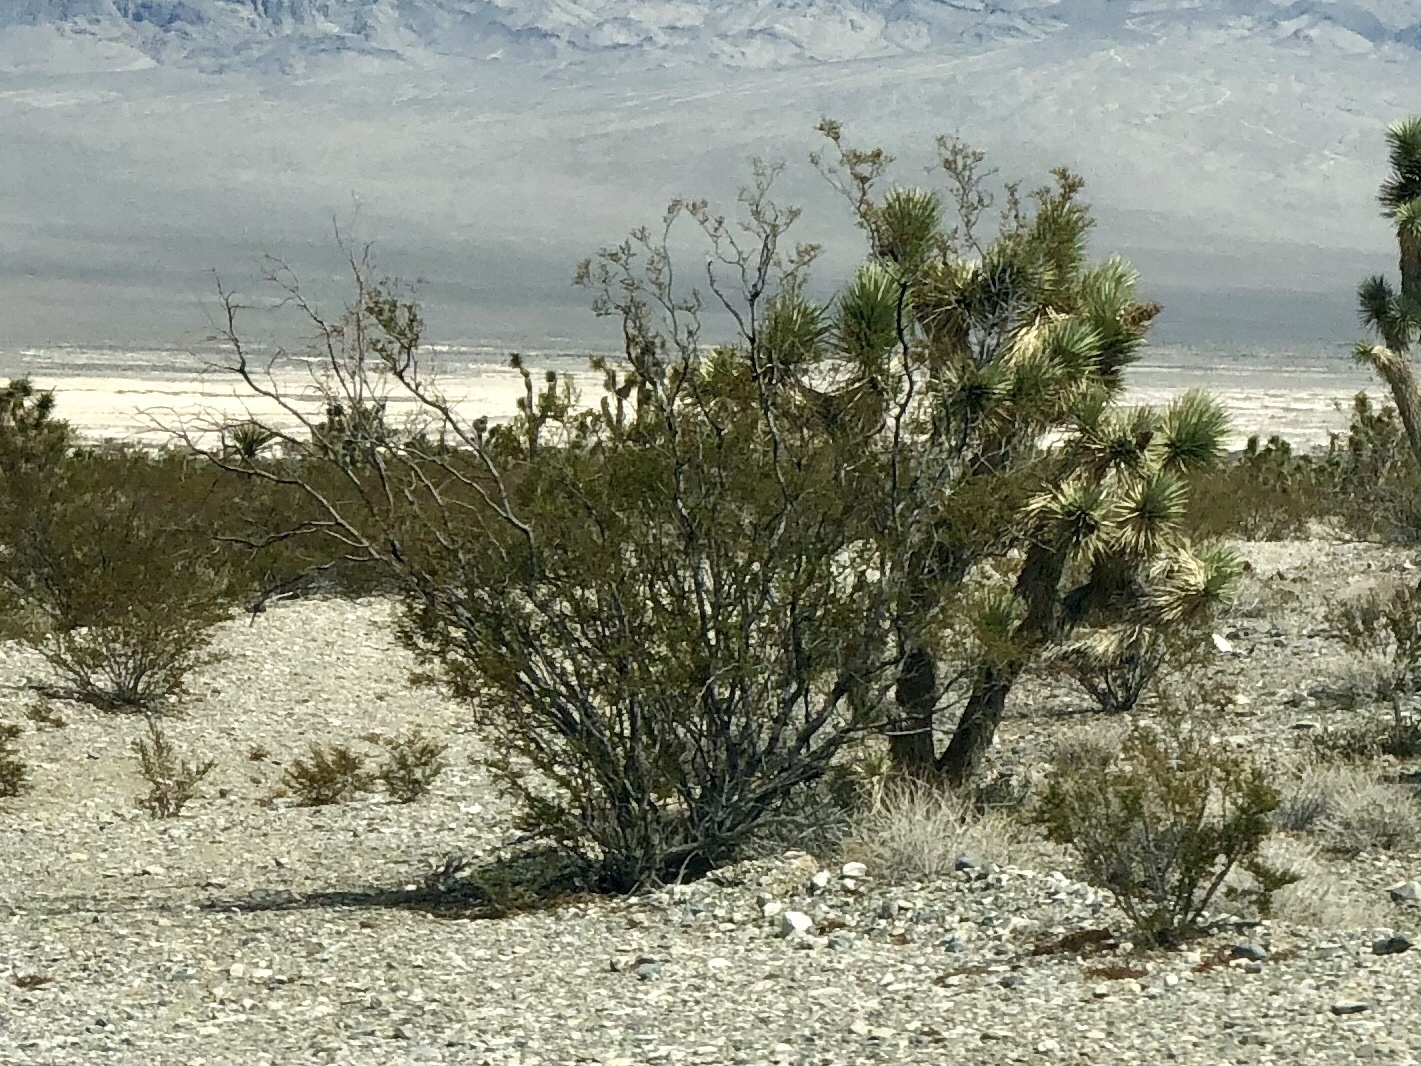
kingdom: Plantae
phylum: Tracheophyta
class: Magnoliopsida
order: Zygophyllales
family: Zygophyllaceae
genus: Larrea
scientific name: Larrea tridentata
